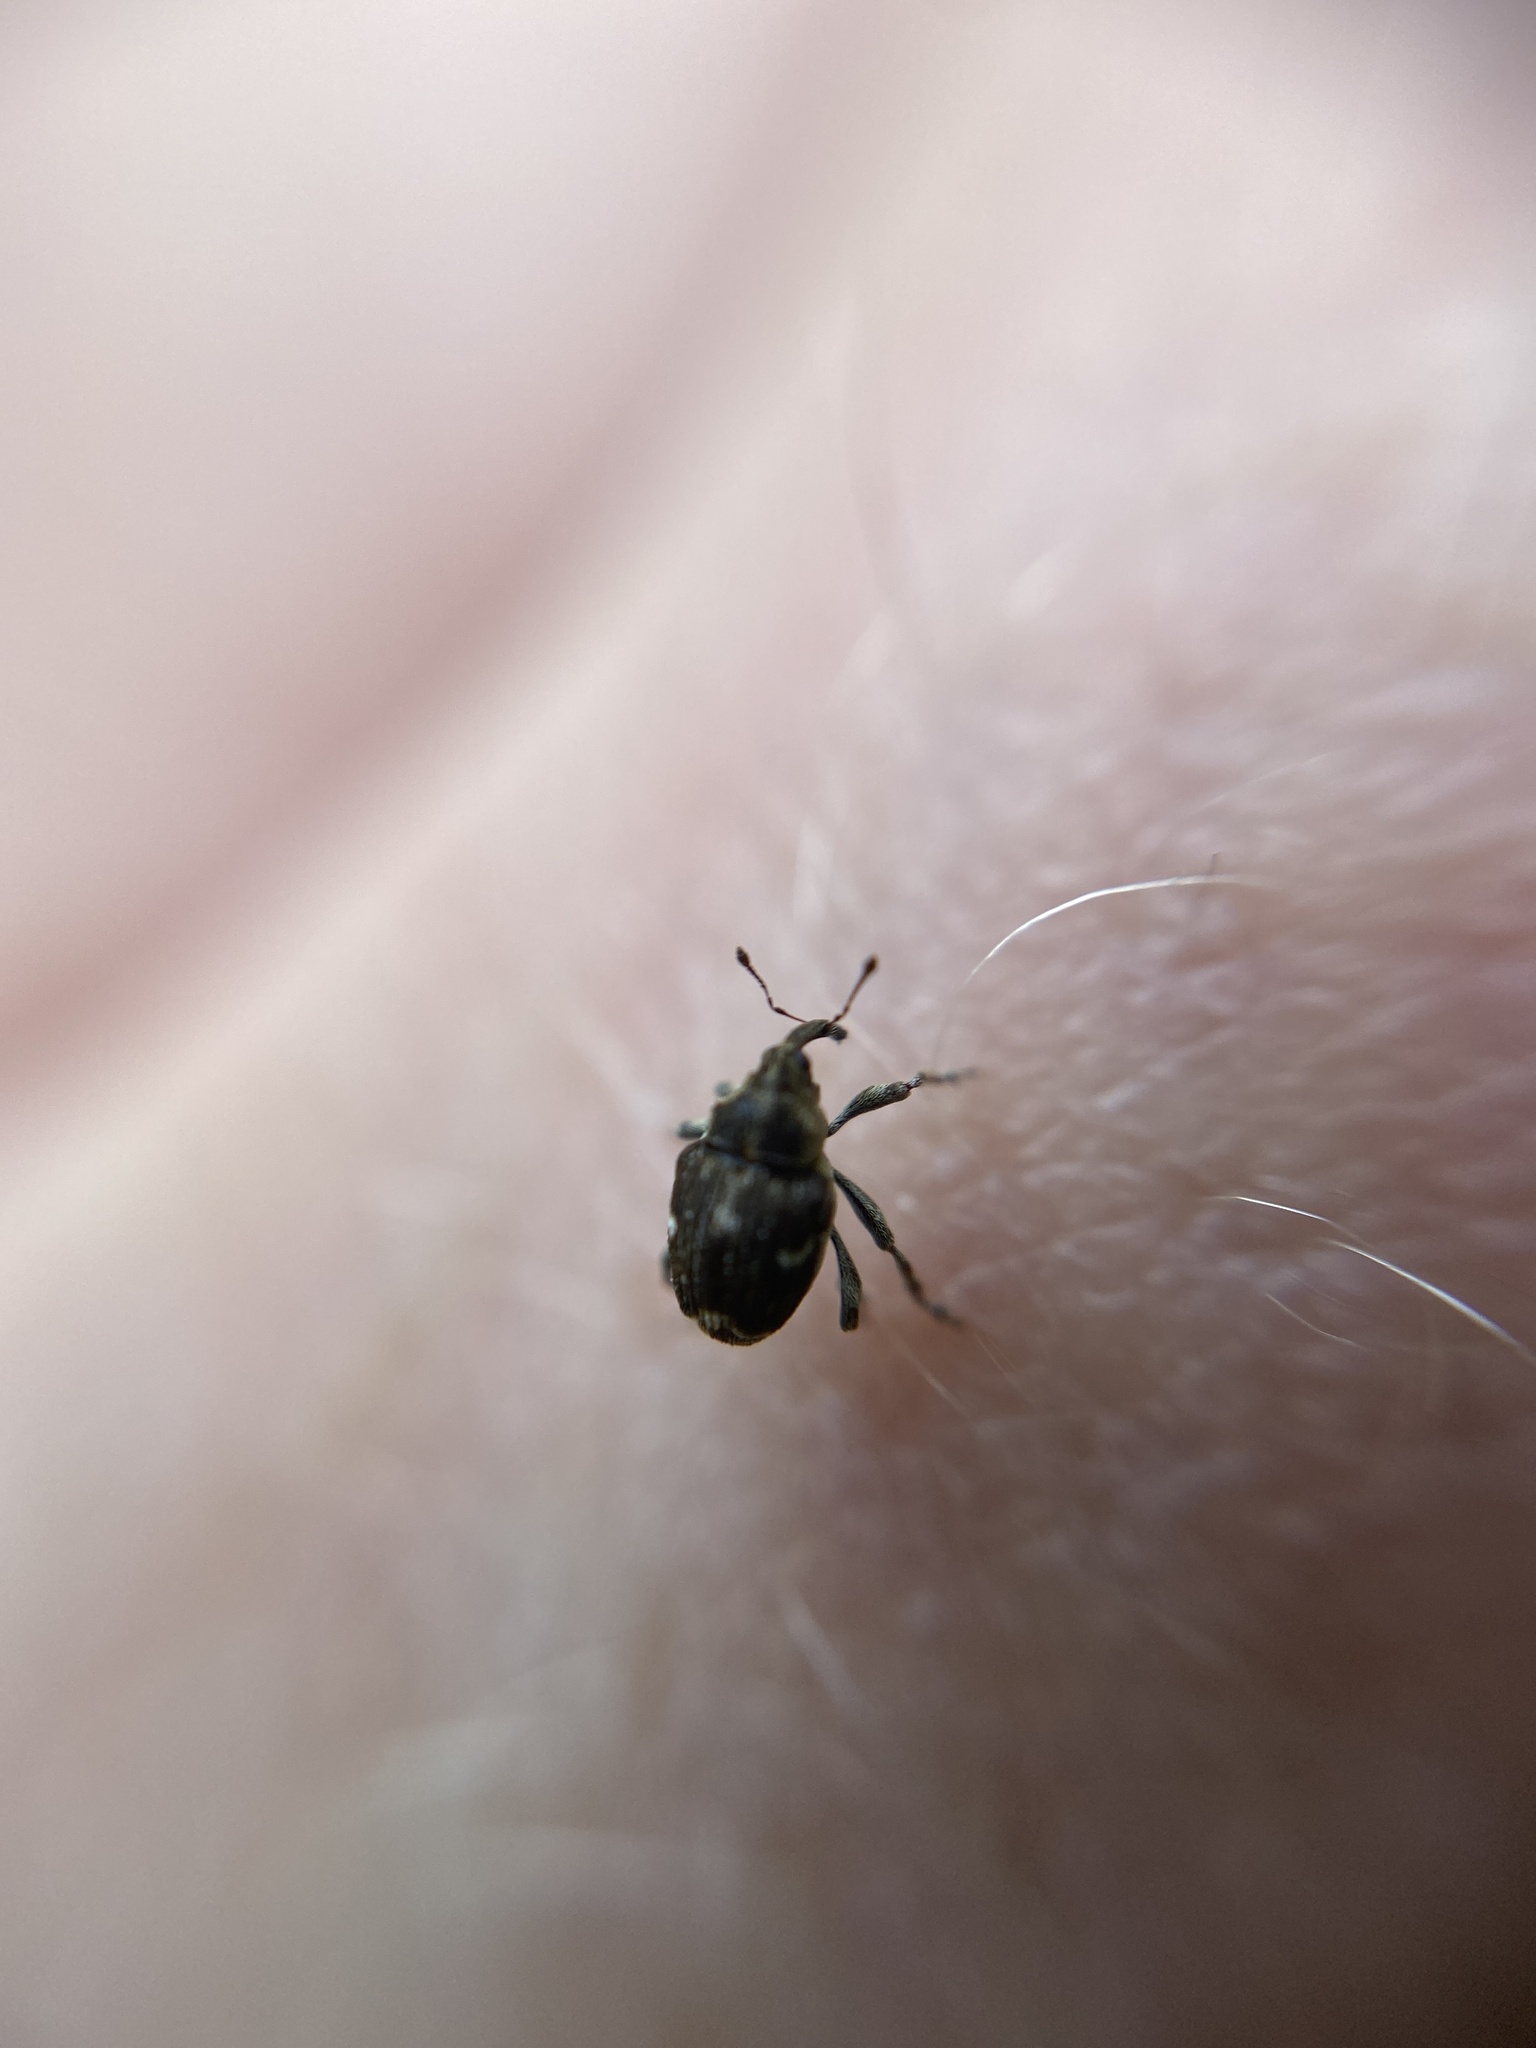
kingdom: Animalia
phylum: Arthropoda
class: Insecta
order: Coleoptera
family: Curculionidae
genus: Nedyus
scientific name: Nedyus quadrimaculatus
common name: Small nettle weevil
